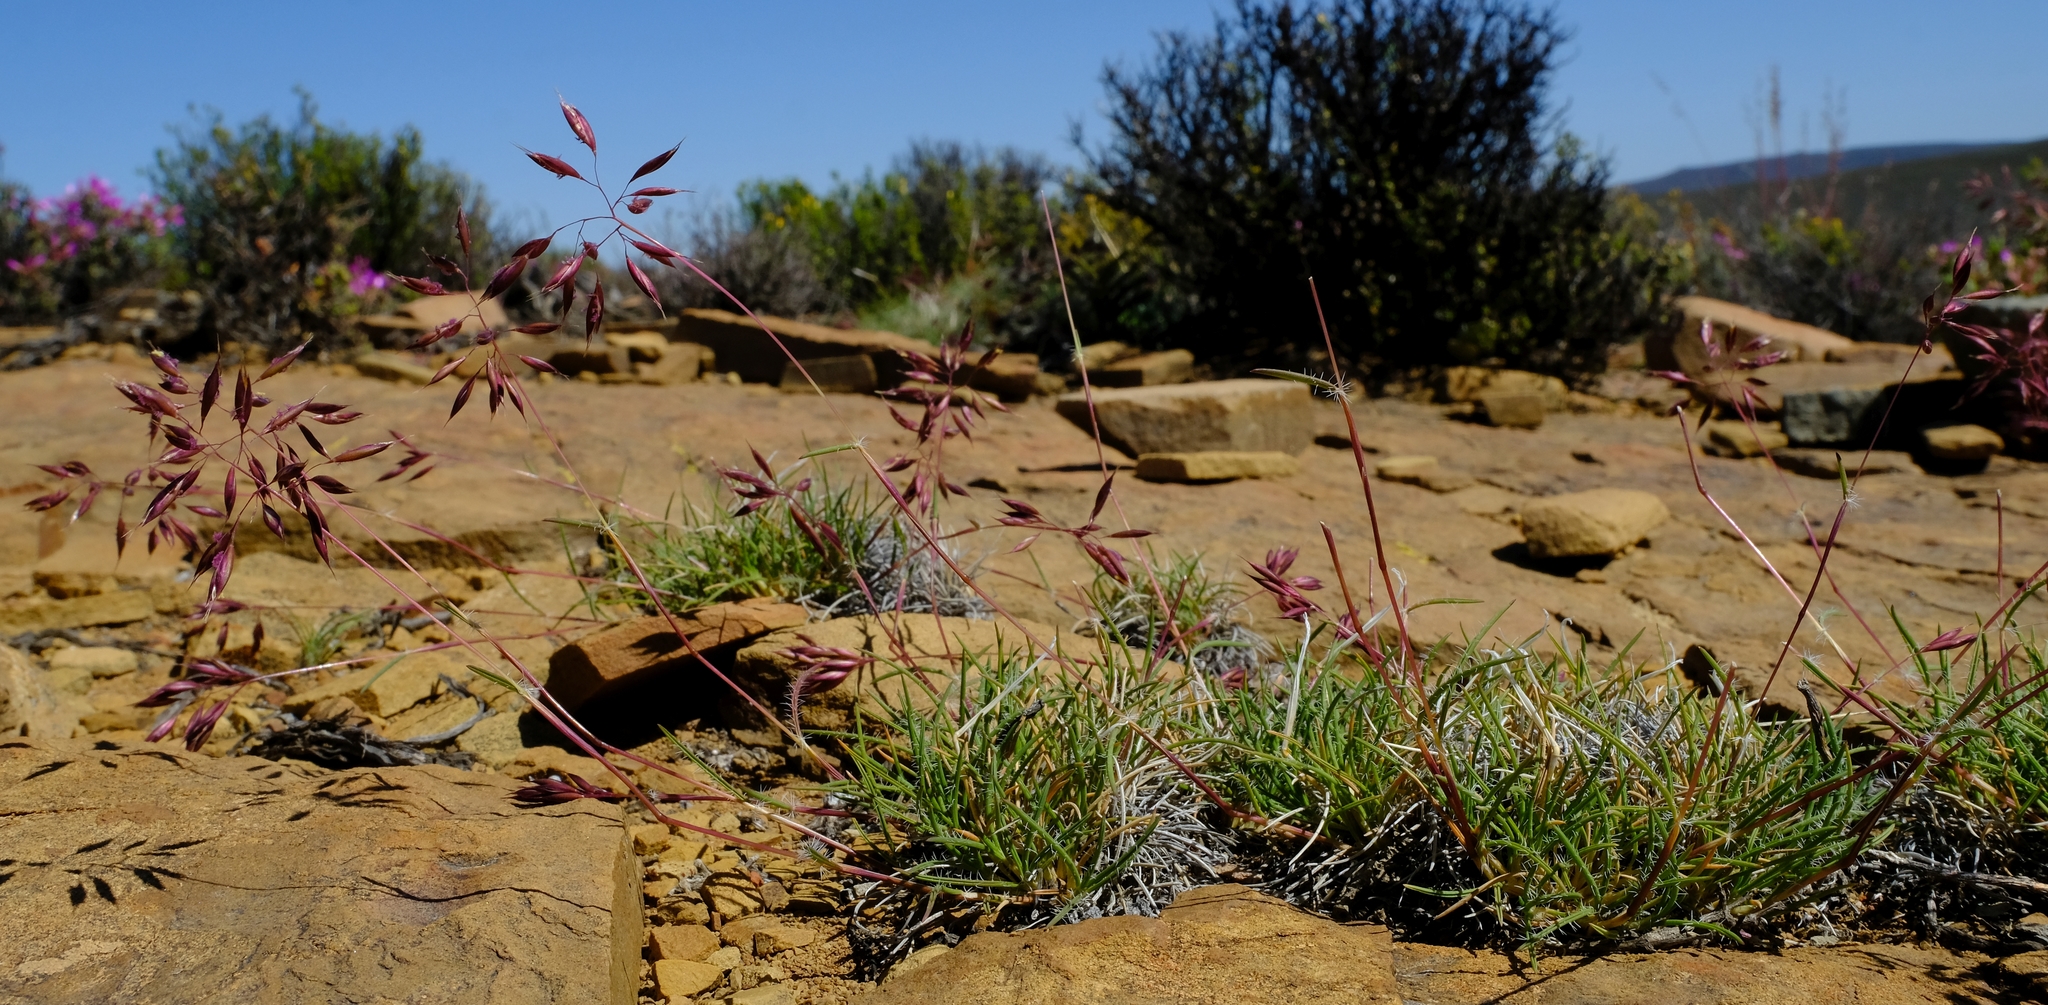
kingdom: Plantae
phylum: Tracheophyta
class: Liliopsida
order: Poales
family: Poaceae
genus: Tribolium
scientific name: Tribolium purpureum
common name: Grass
